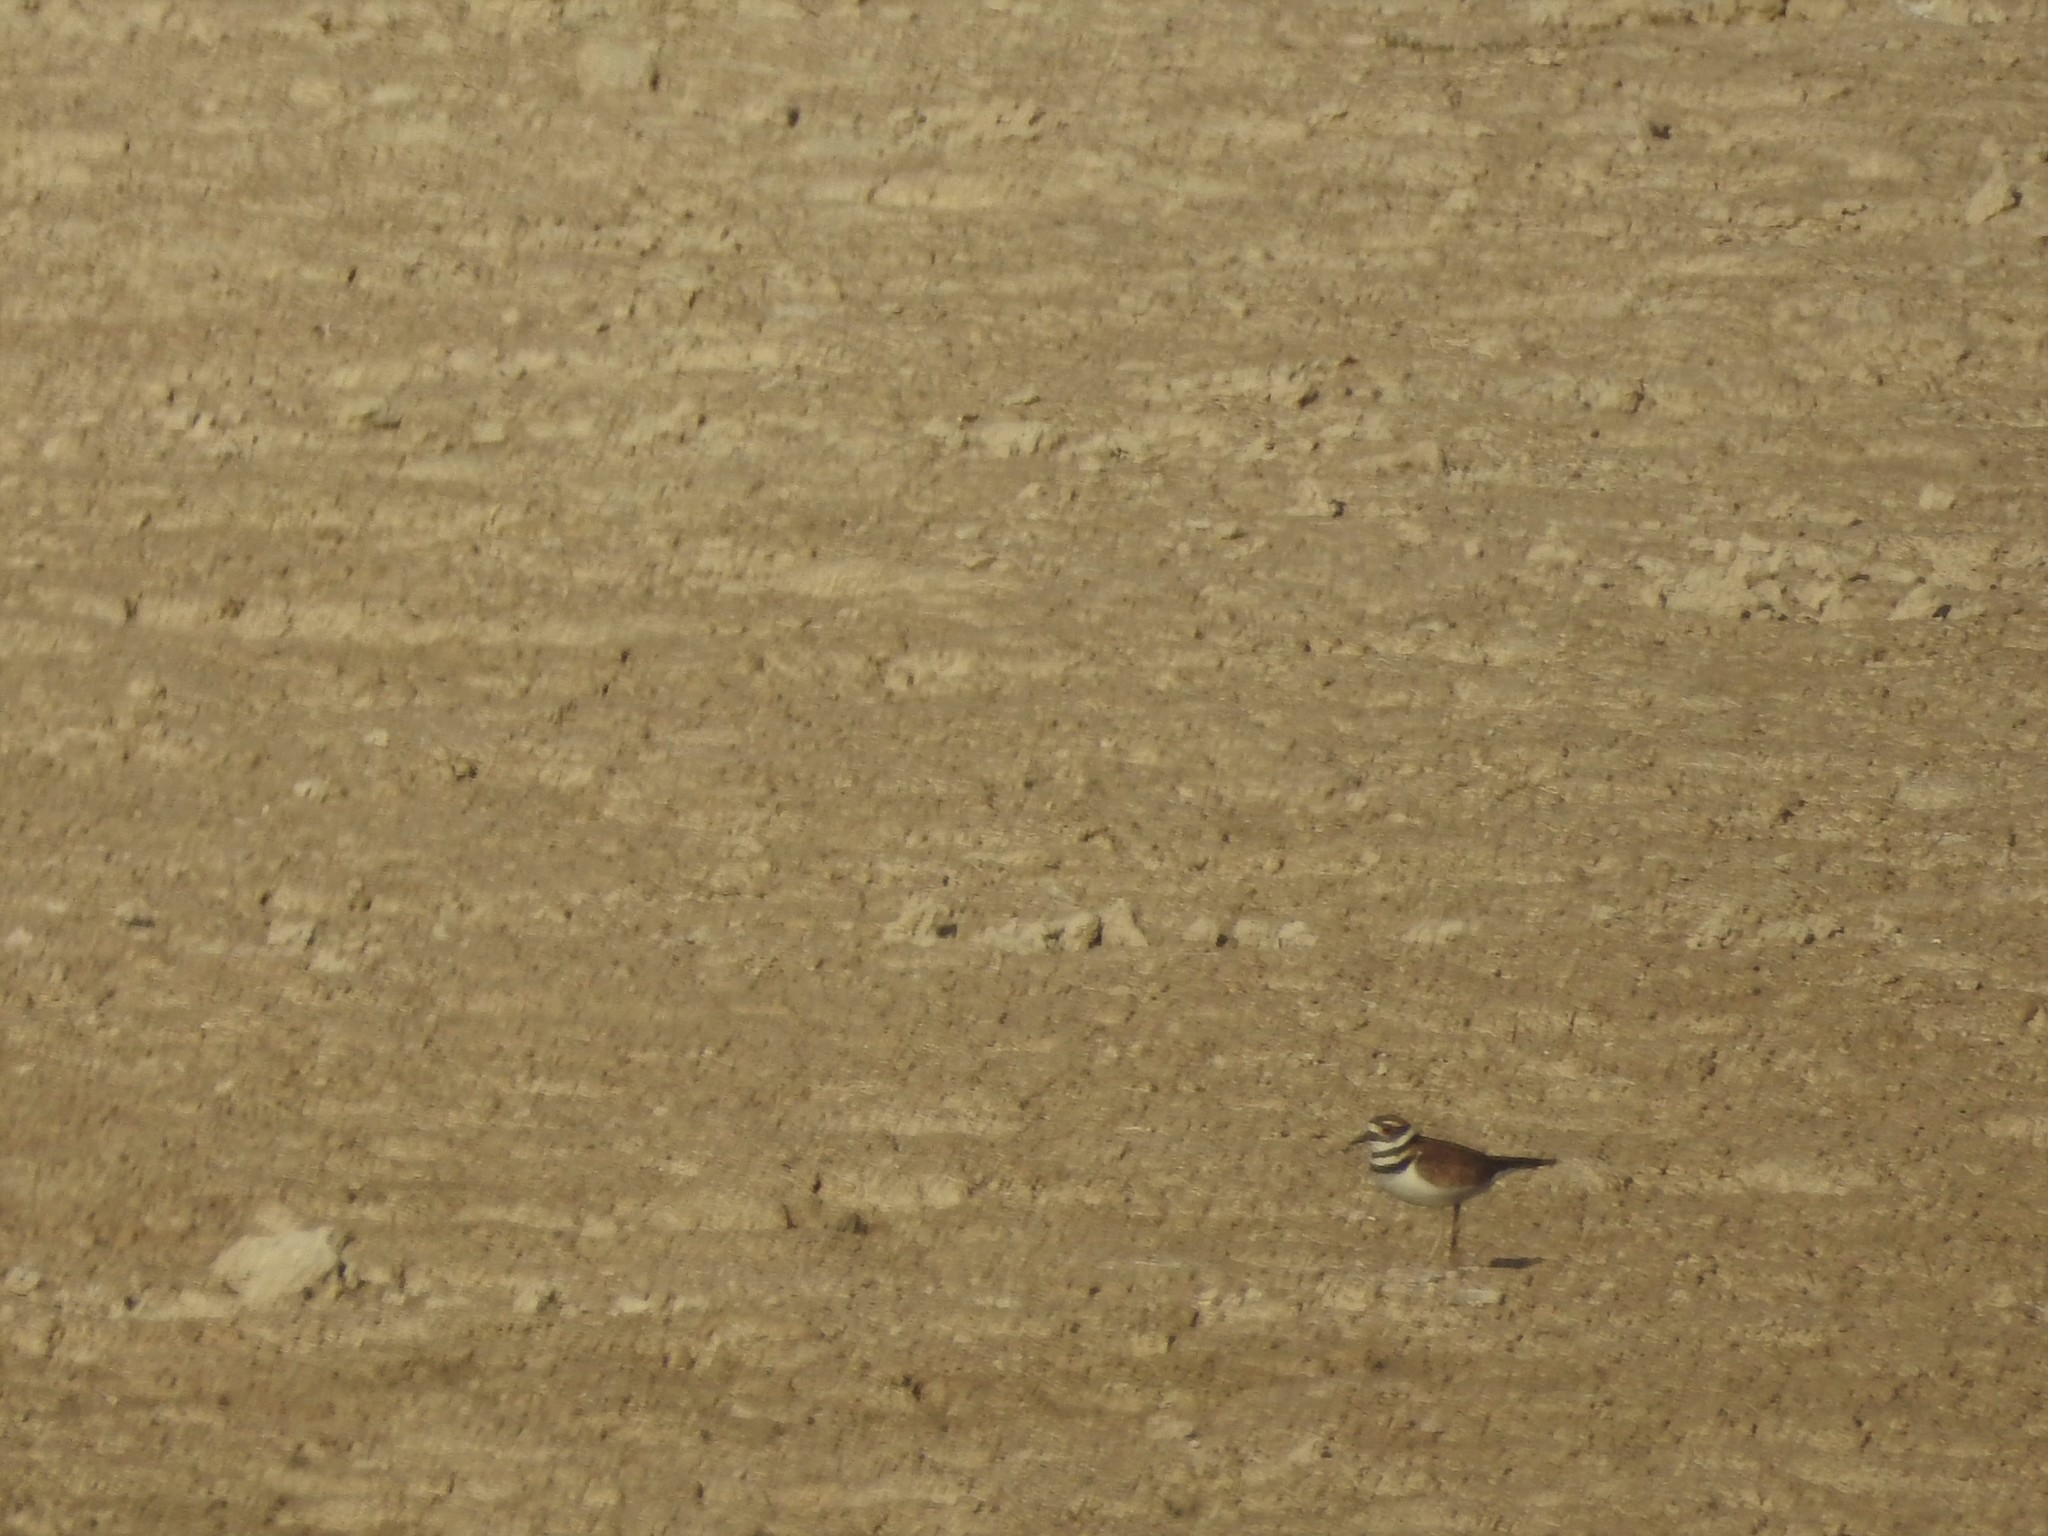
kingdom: Animalia
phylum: Chordata
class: Aves
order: Charadriiformes
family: Charadriidae
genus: Charadrius
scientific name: Charadrius vociferus
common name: Killdeer
